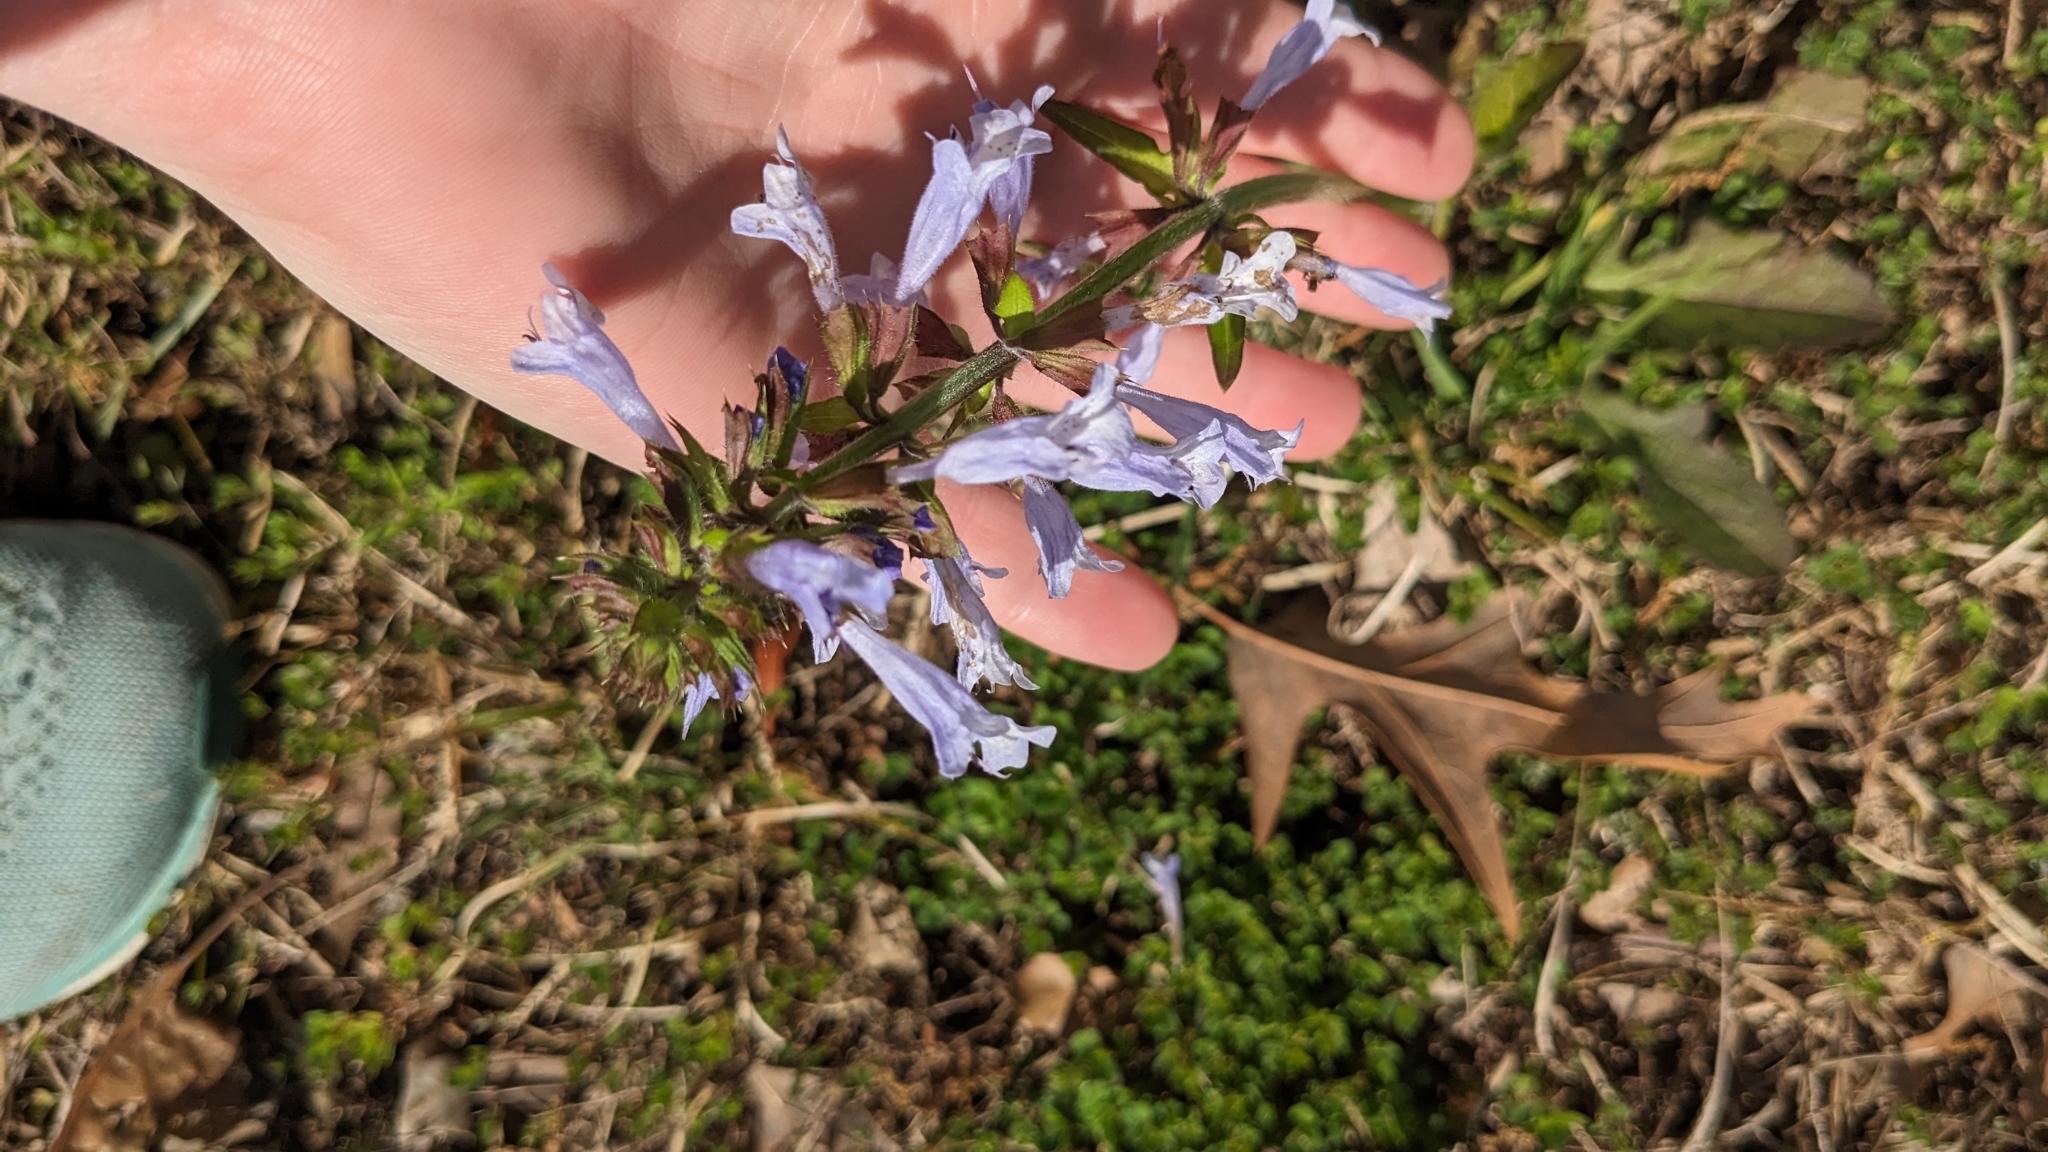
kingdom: Plantae
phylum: Tracheophyta
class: Magnoliopsida
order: Lamiales
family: Lamiaceae
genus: Salvia
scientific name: Salvia lyrata
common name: Cancerweed
